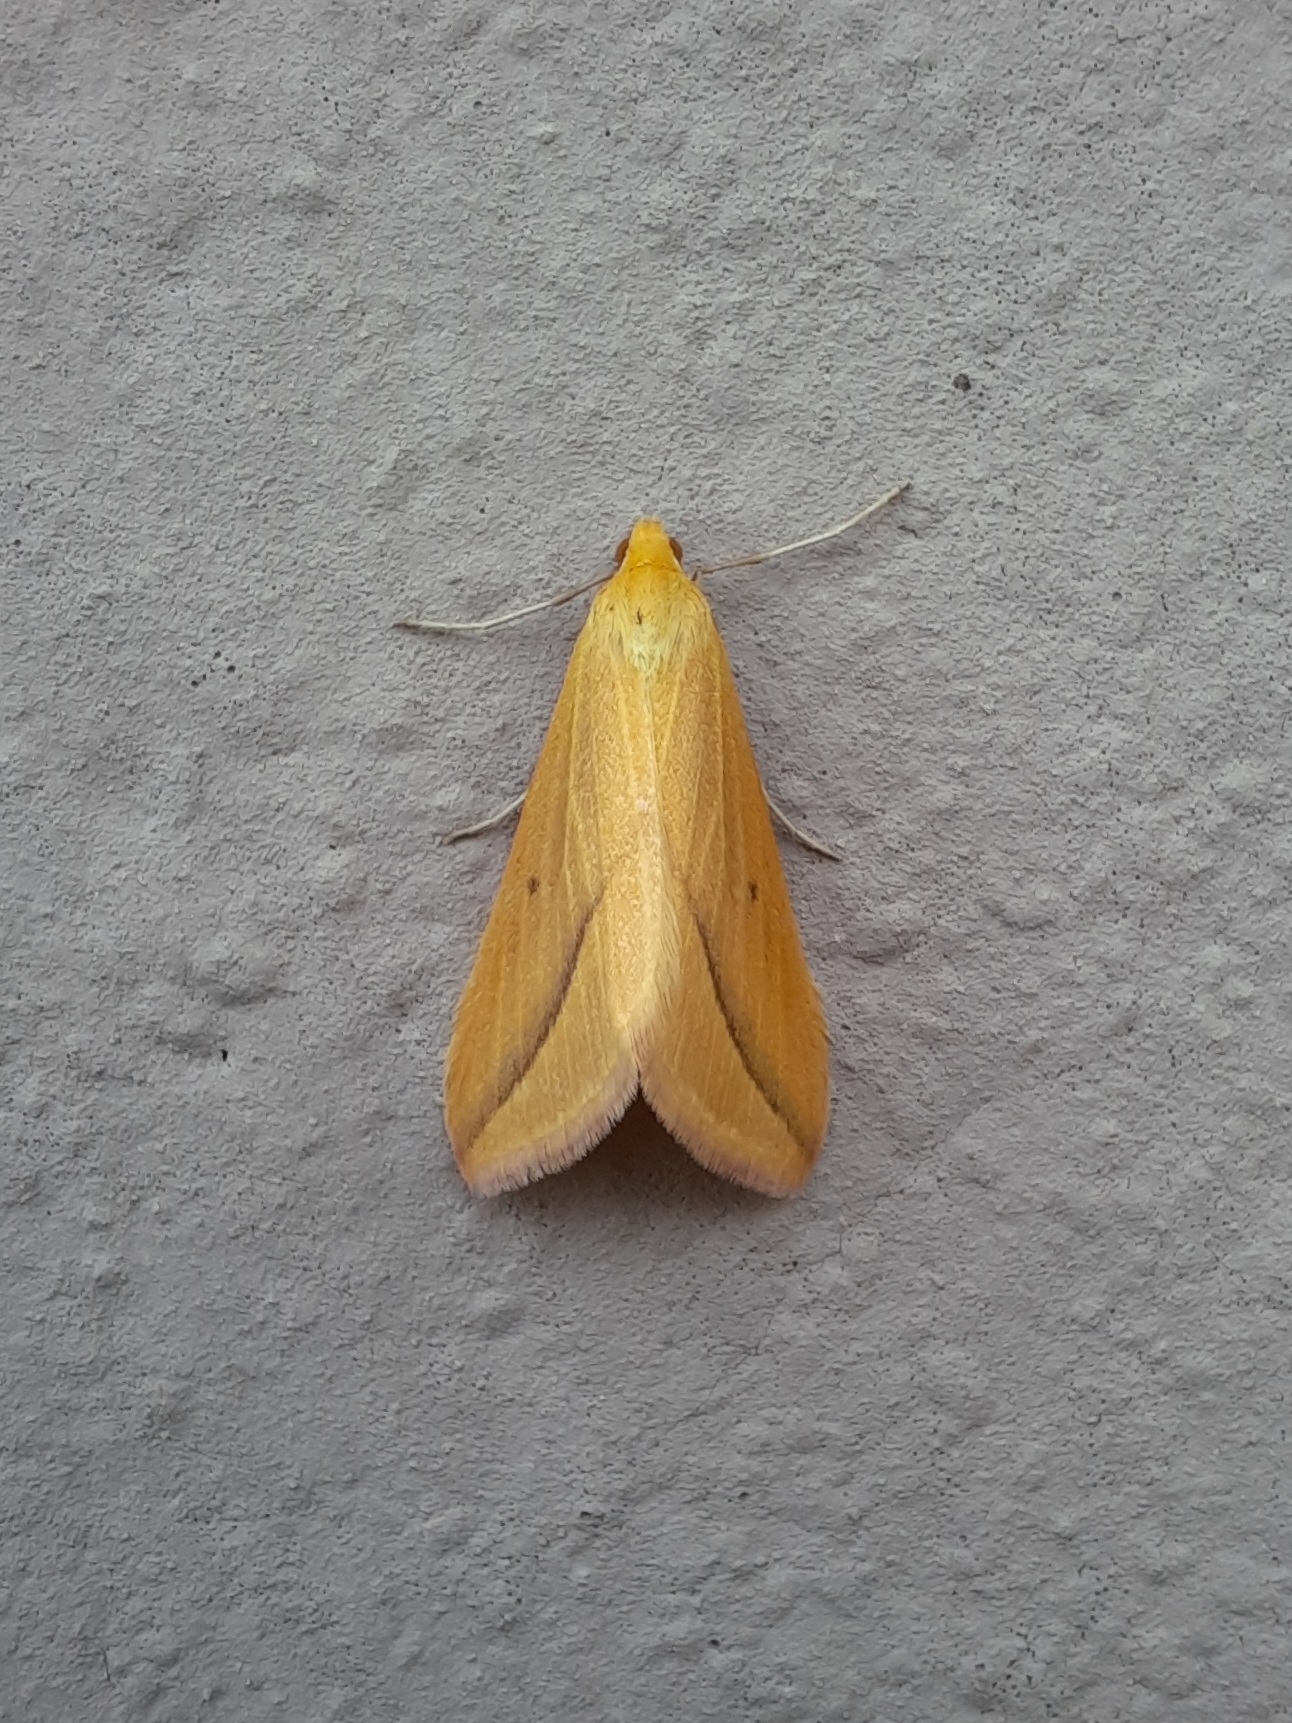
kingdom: Animalia
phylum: Arthropoda
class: Insecta
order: Lepidoptera
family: Geometridae
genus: Rhodometra
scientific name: Rhodometra sacraria
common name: Vestal
